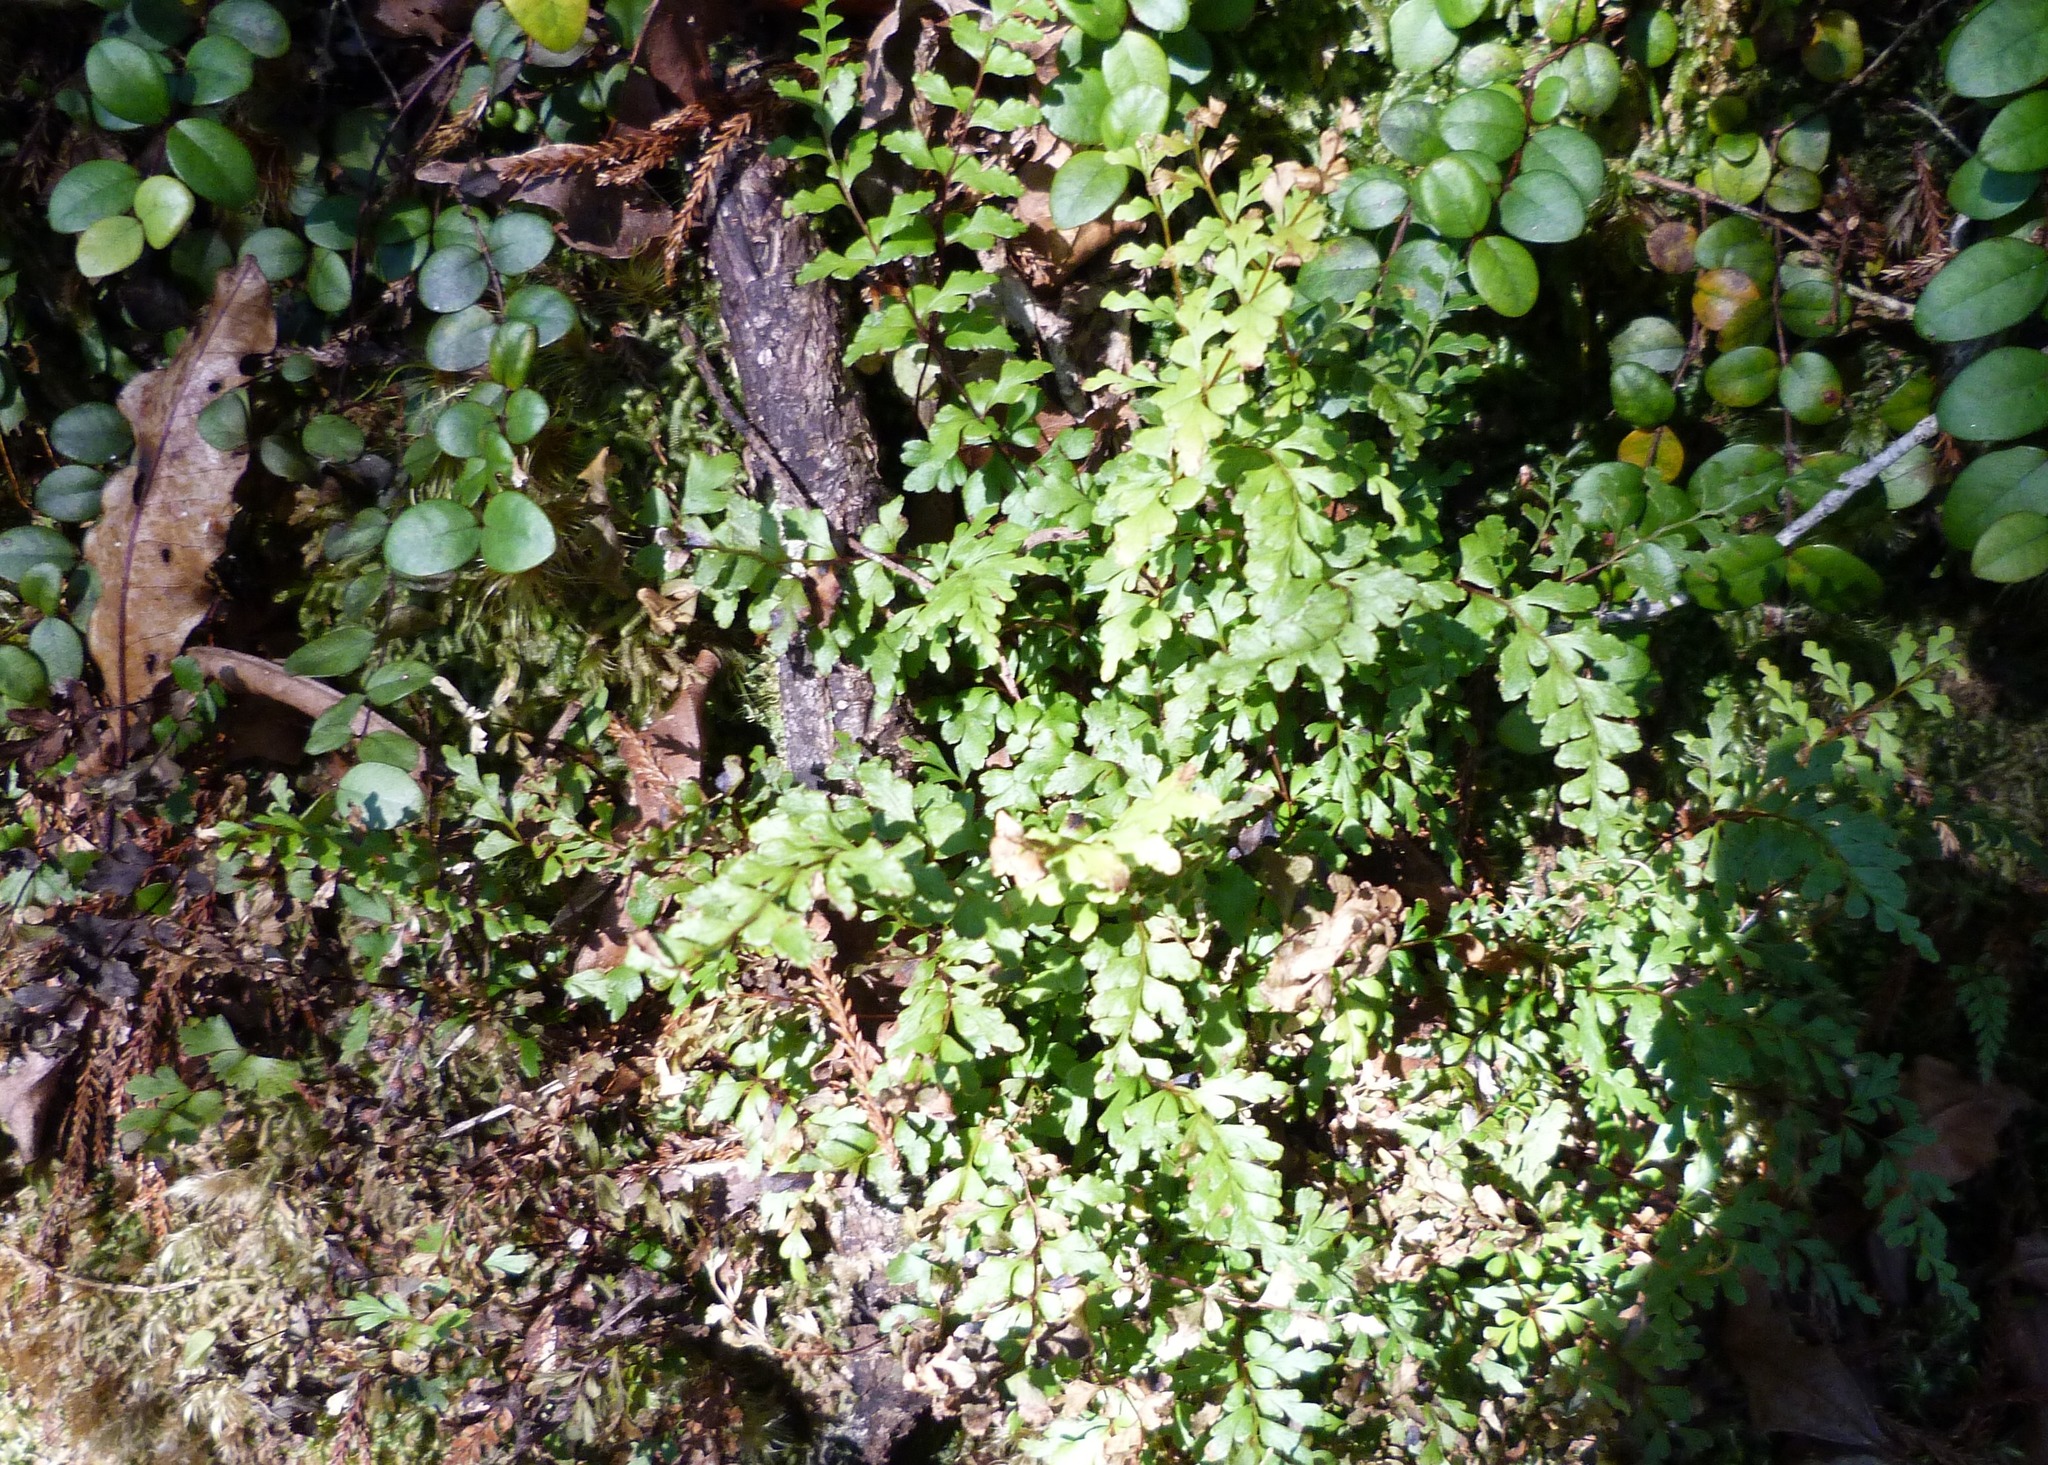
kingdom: Plantae
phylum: Tracheophyta
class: Polypodiopsida
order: Polypodiales
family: Lindsaeaceae
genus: Lindsaea
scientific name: Lindsaea trichomanoides
